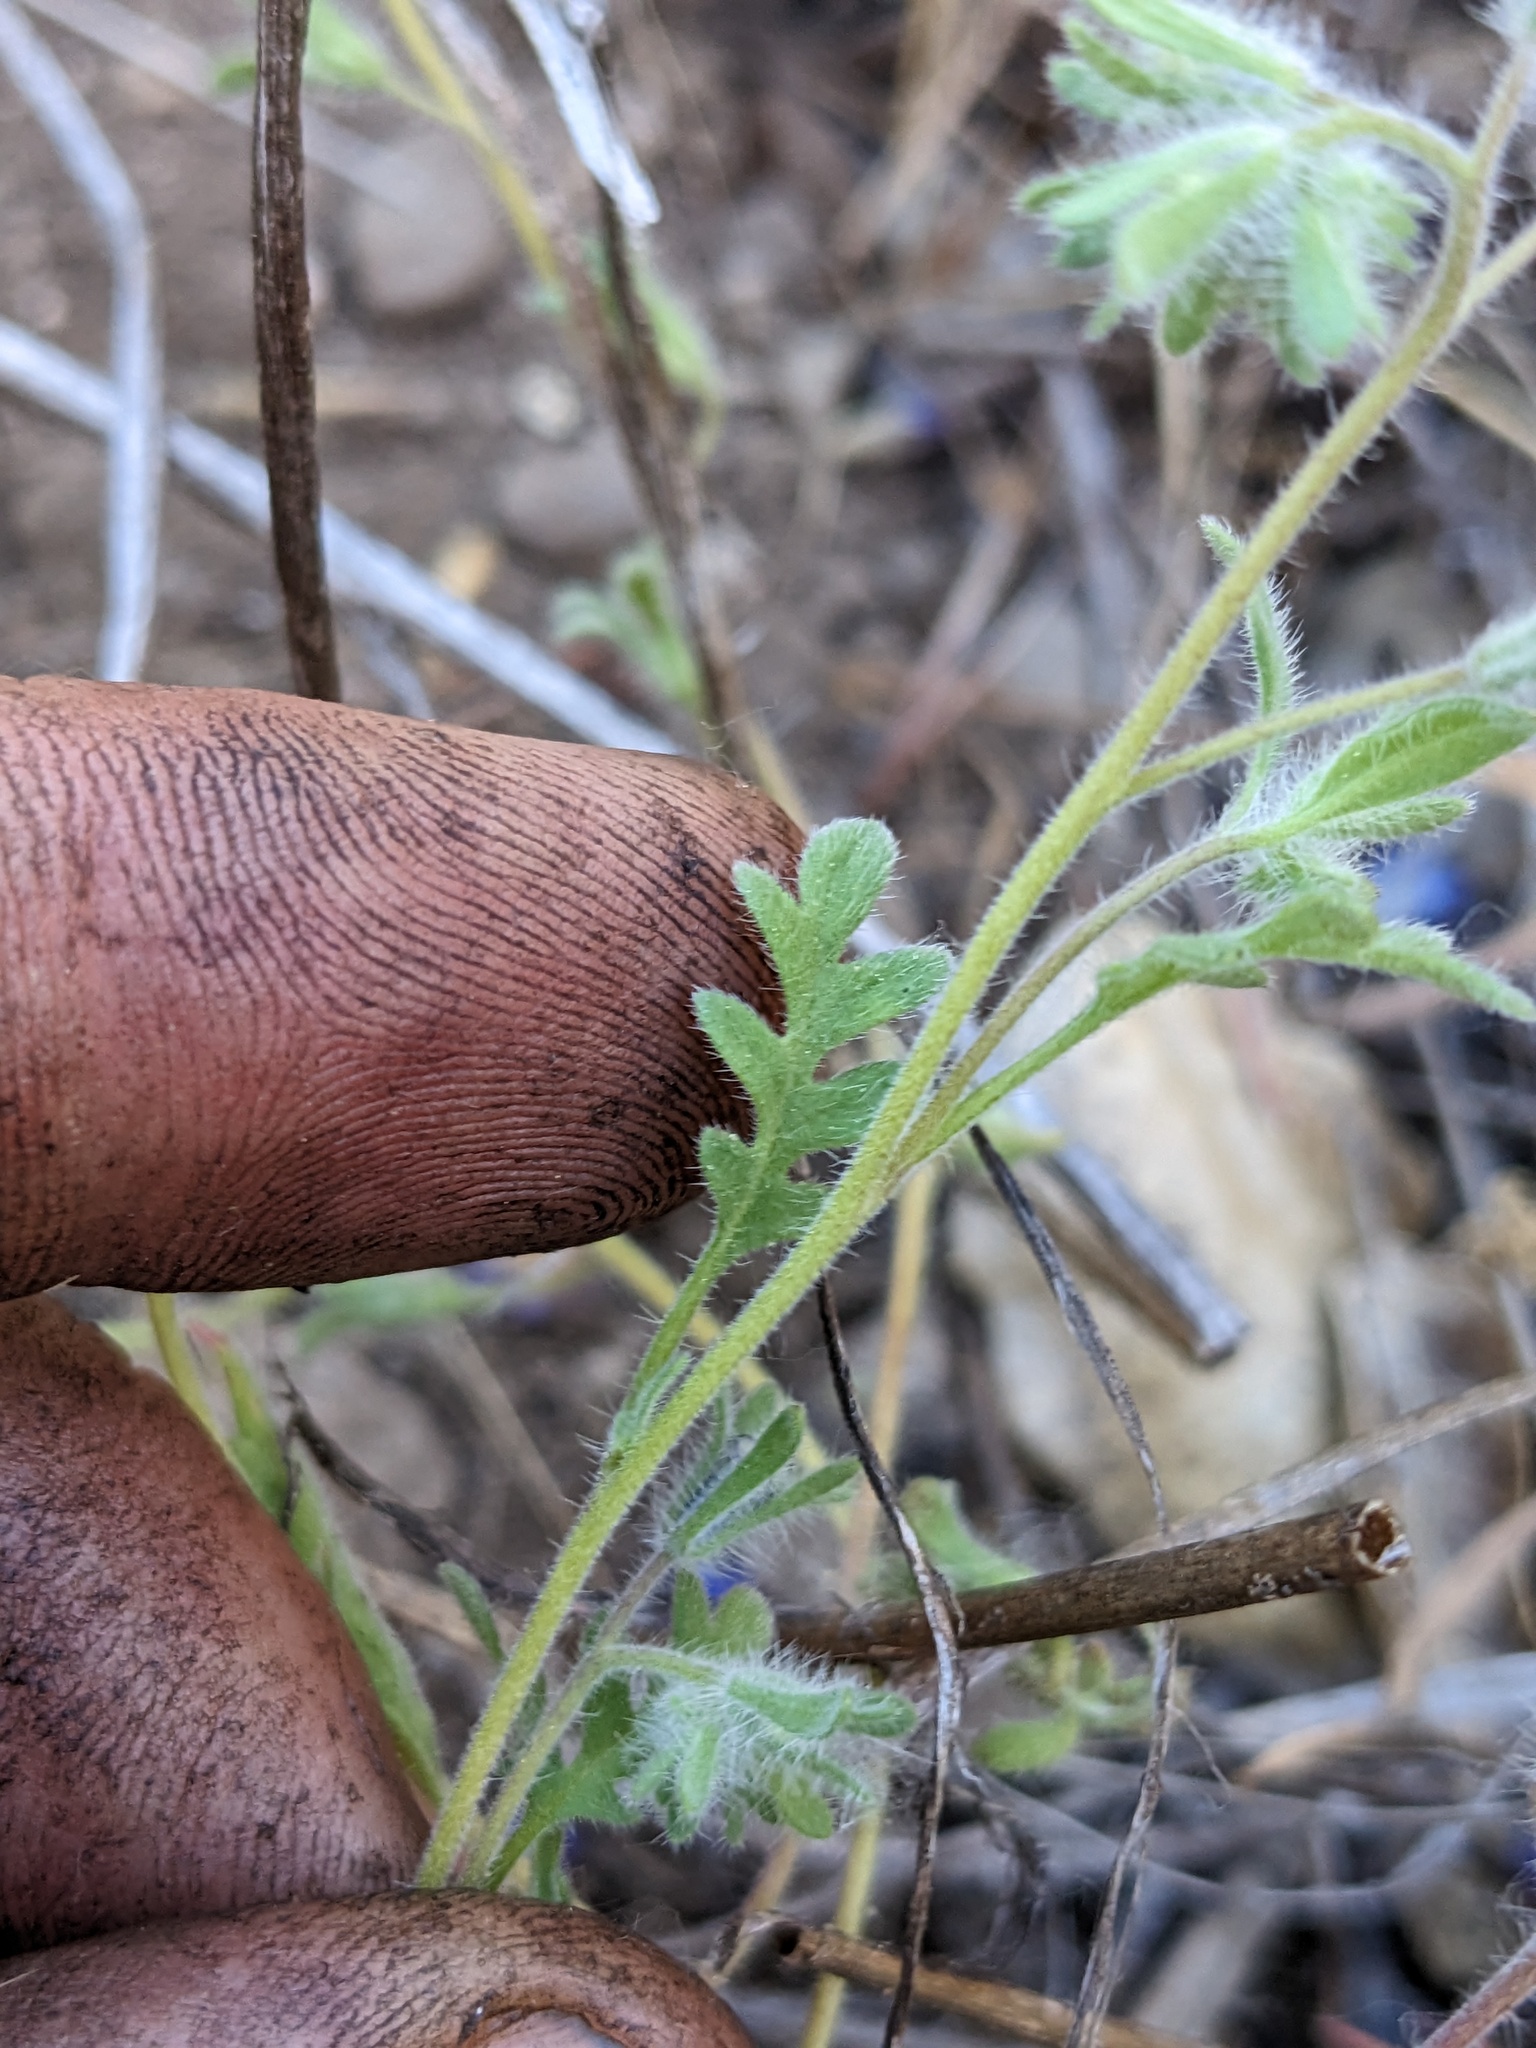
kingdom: Plantae
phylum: Tracheophyta
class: Magnoliopsida
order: Boraginales
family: Hydrophyllaceae
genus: Phacelia
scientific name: Phacelia douglasii
